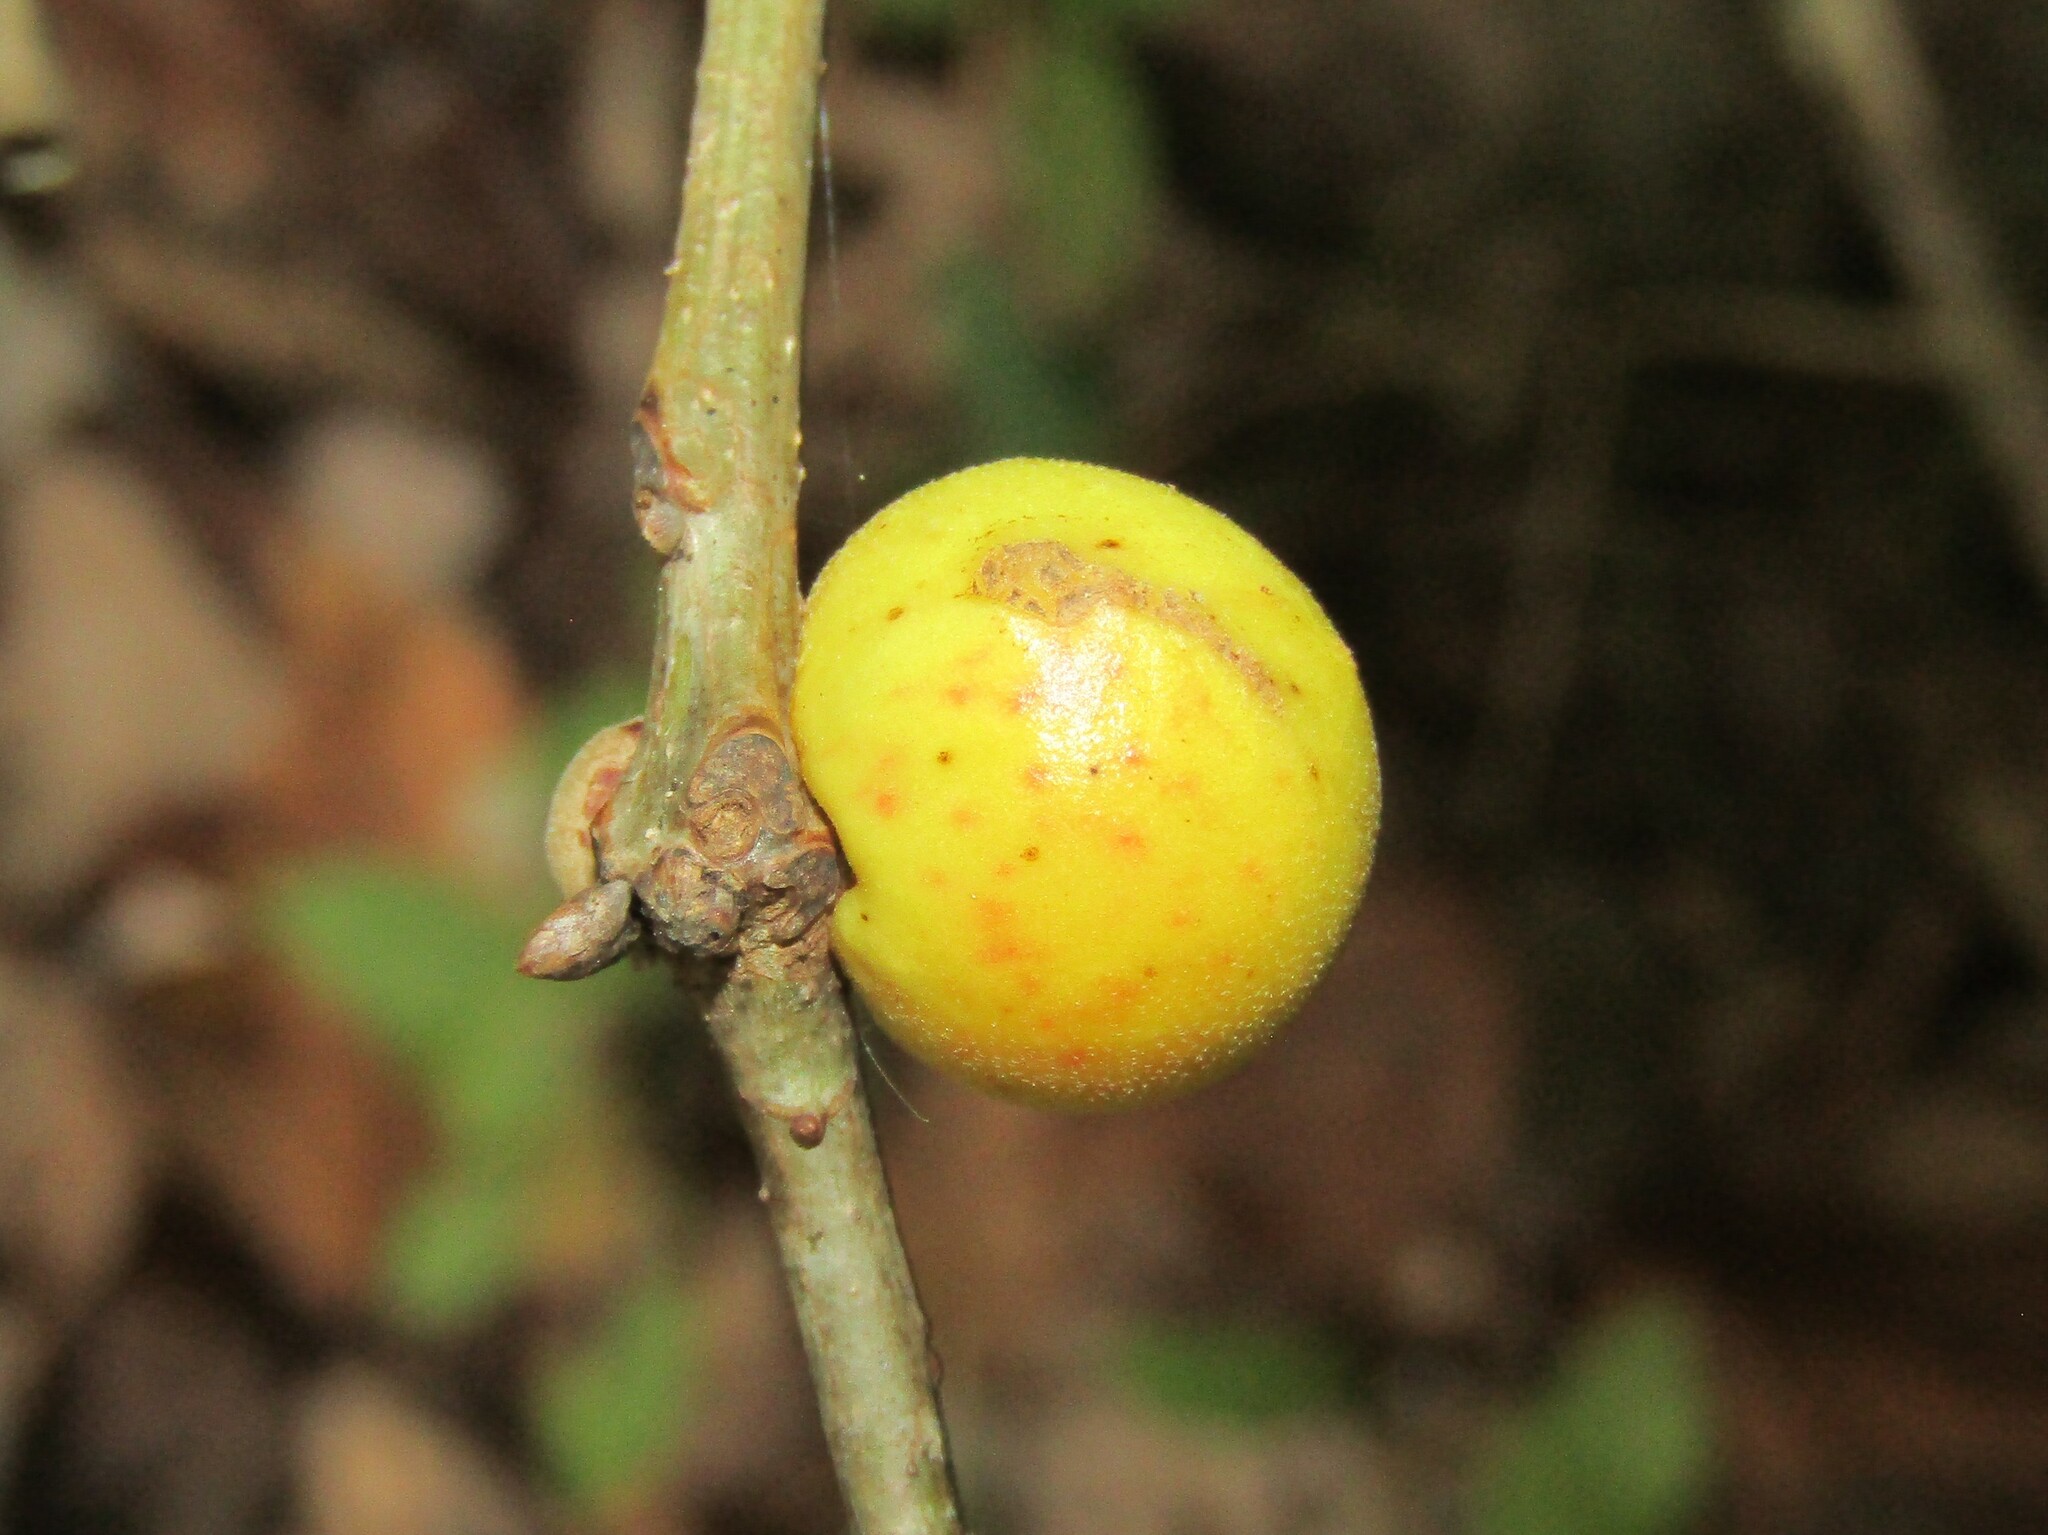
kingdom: Animalia
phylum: Arthropoda
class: Insecta
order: Hymenoptera
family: Cynipidae
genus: Disholcaspis
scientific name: Disholcaspis quercusglobulus
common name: Round bullet gall wasp
